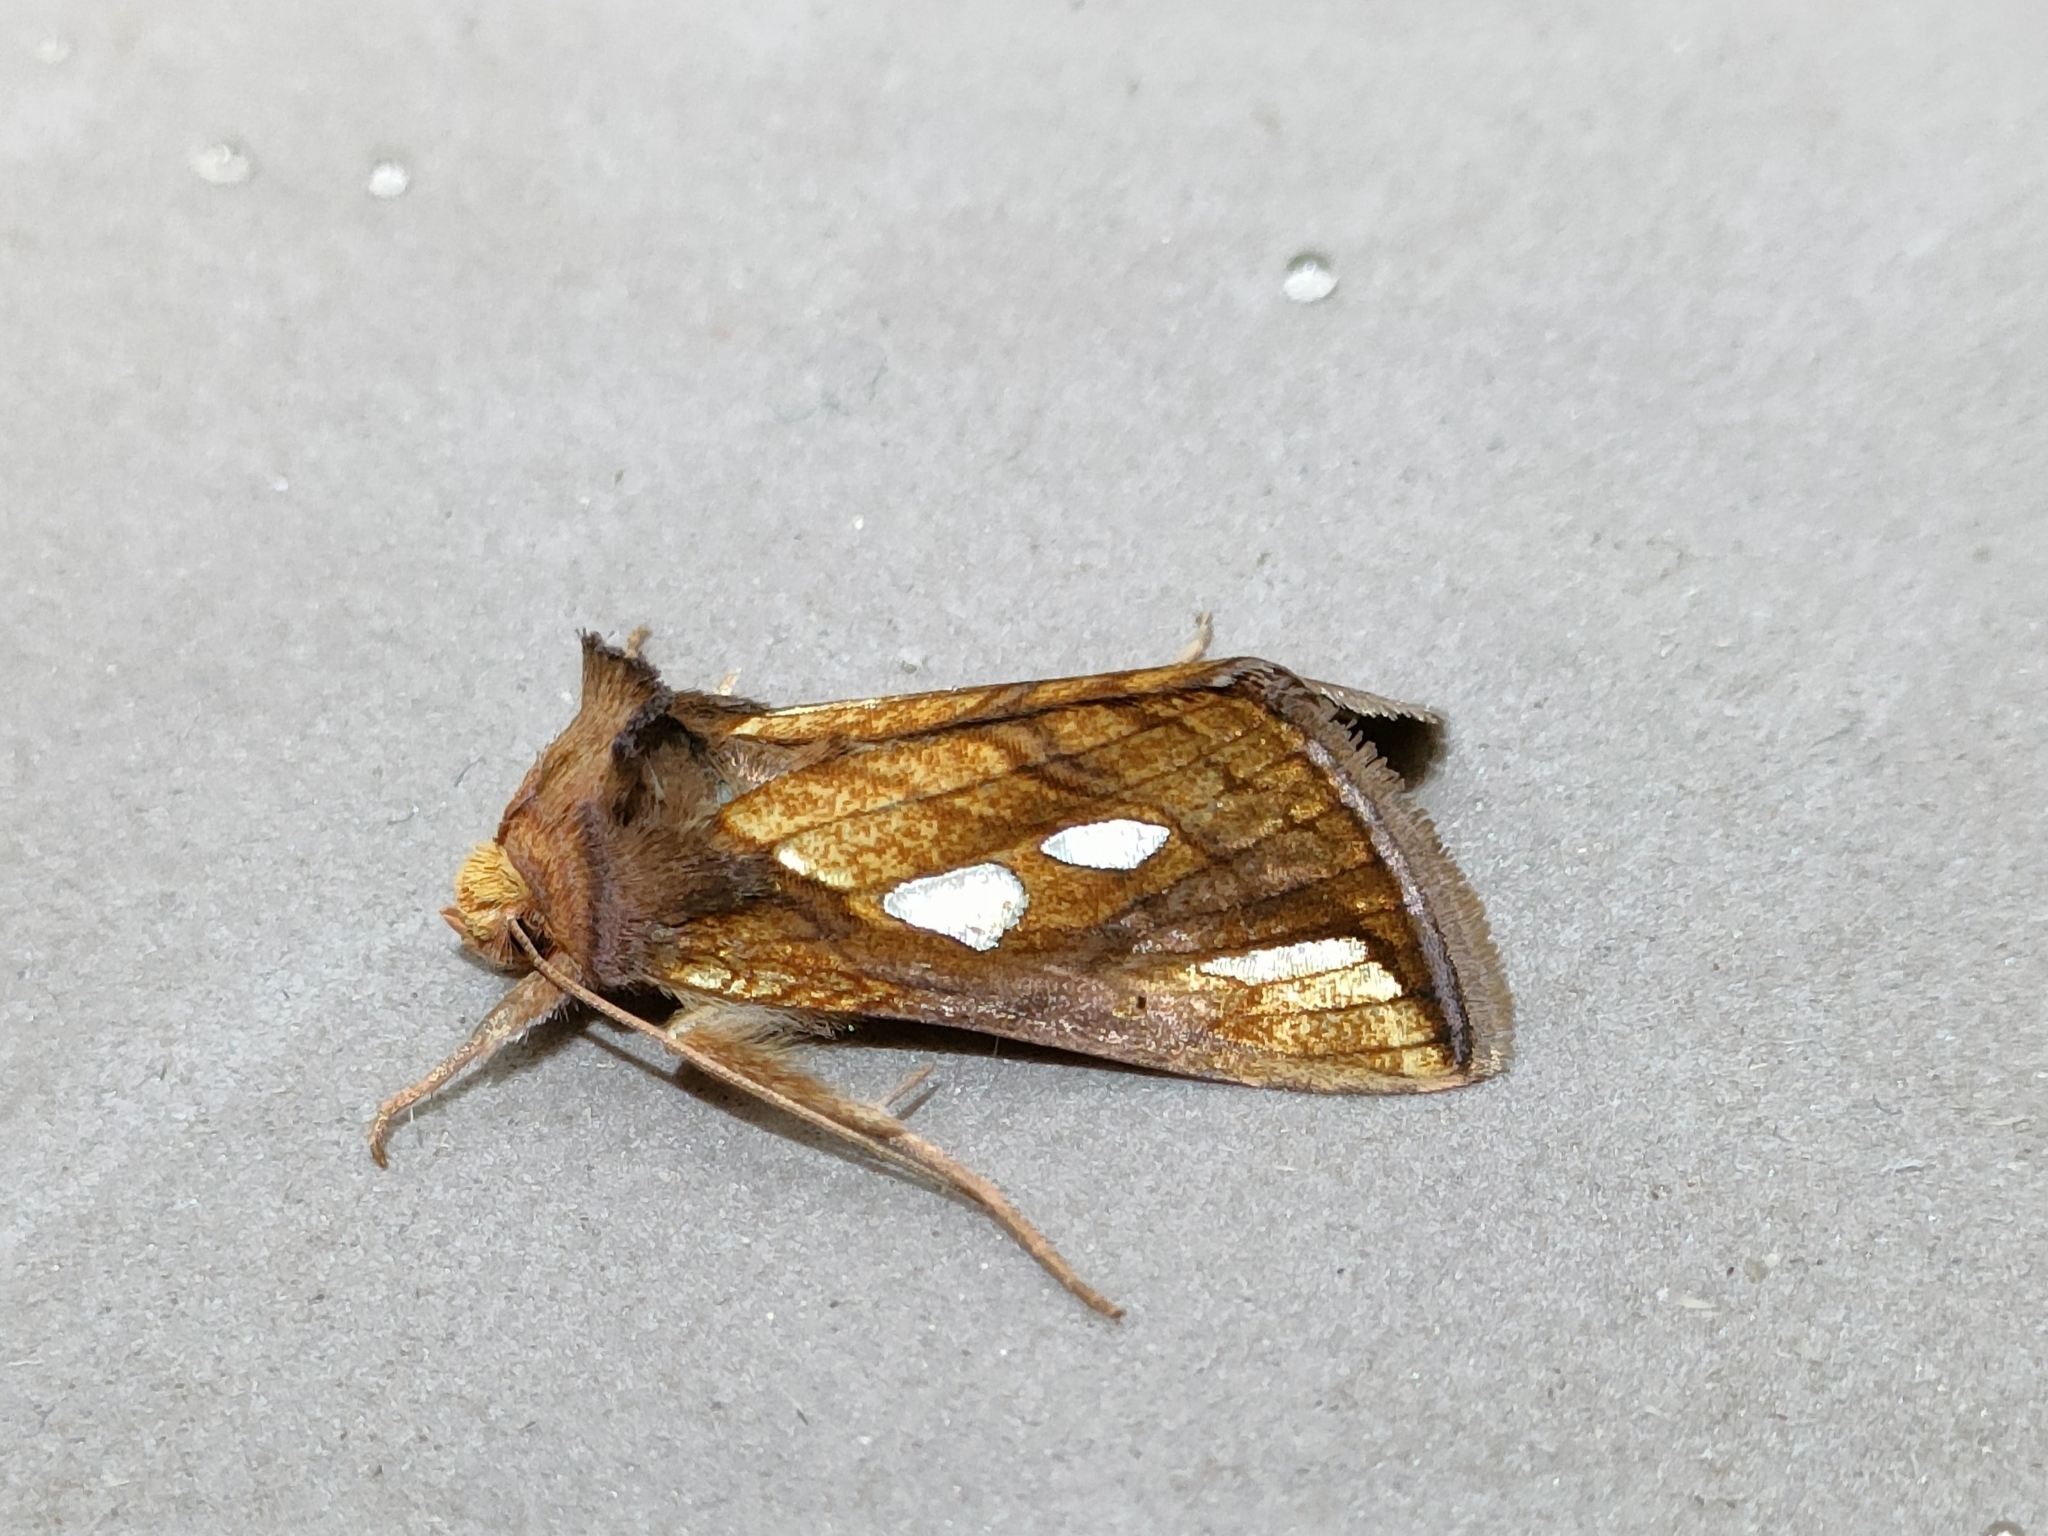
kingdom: Animalia
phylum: Arthropoda
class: Insecta
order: Lepidoptera
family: Noctuidae
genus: Plusia
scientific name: Plusia festucae
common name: Gold spot
